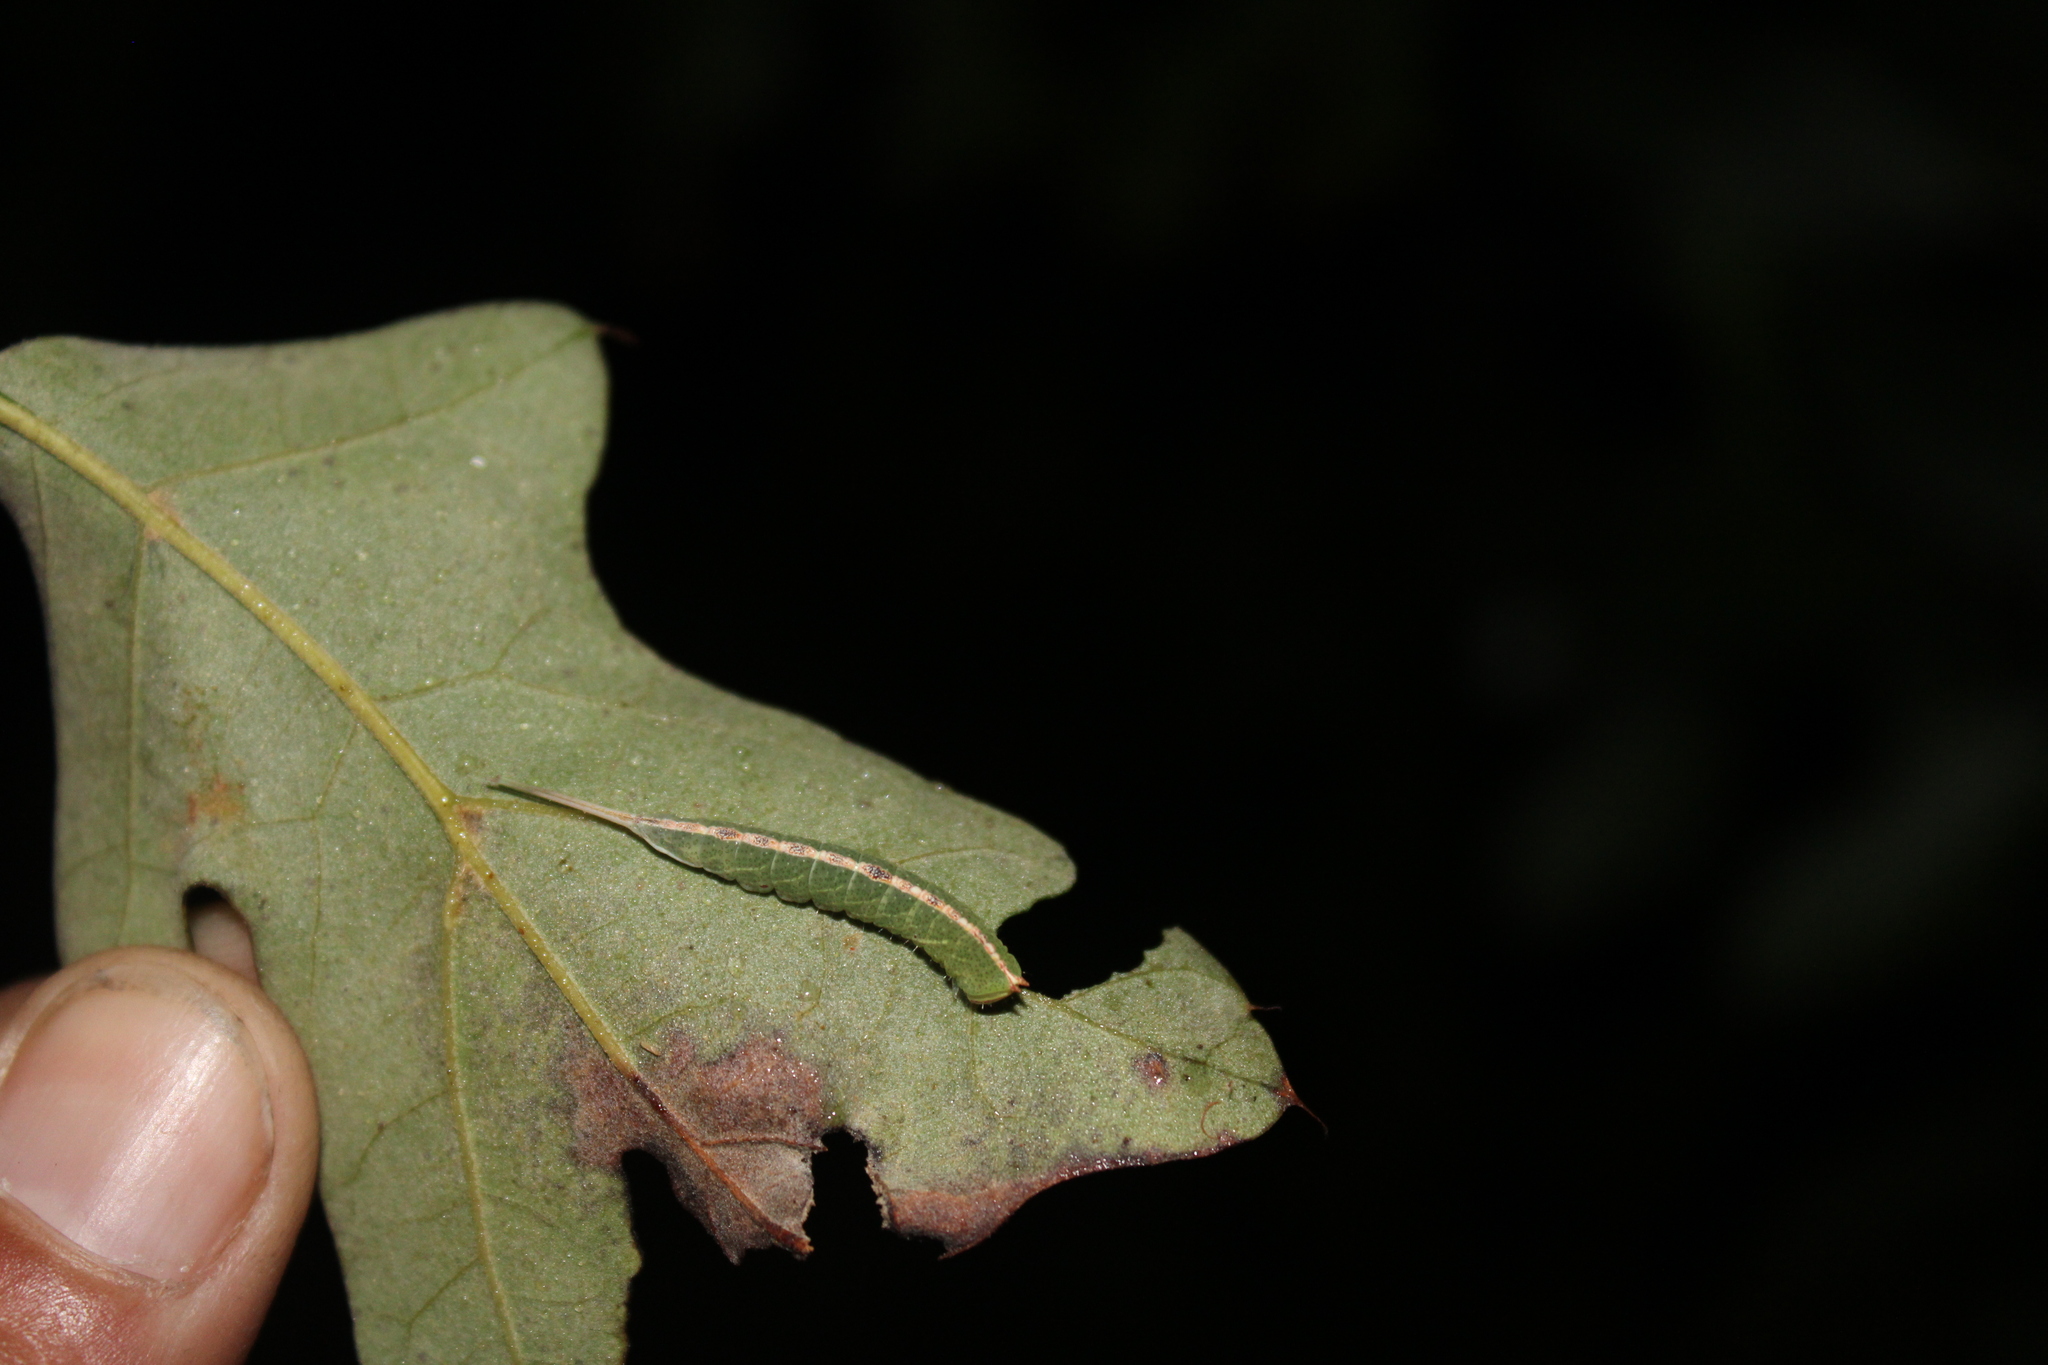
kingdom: Animalia
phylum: Arthropoda
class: Insecta
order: Lepidoptera
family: Notodontidae
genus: Macrurocampa
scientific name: Macrurocampa marthesia
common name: Mottled prominent
